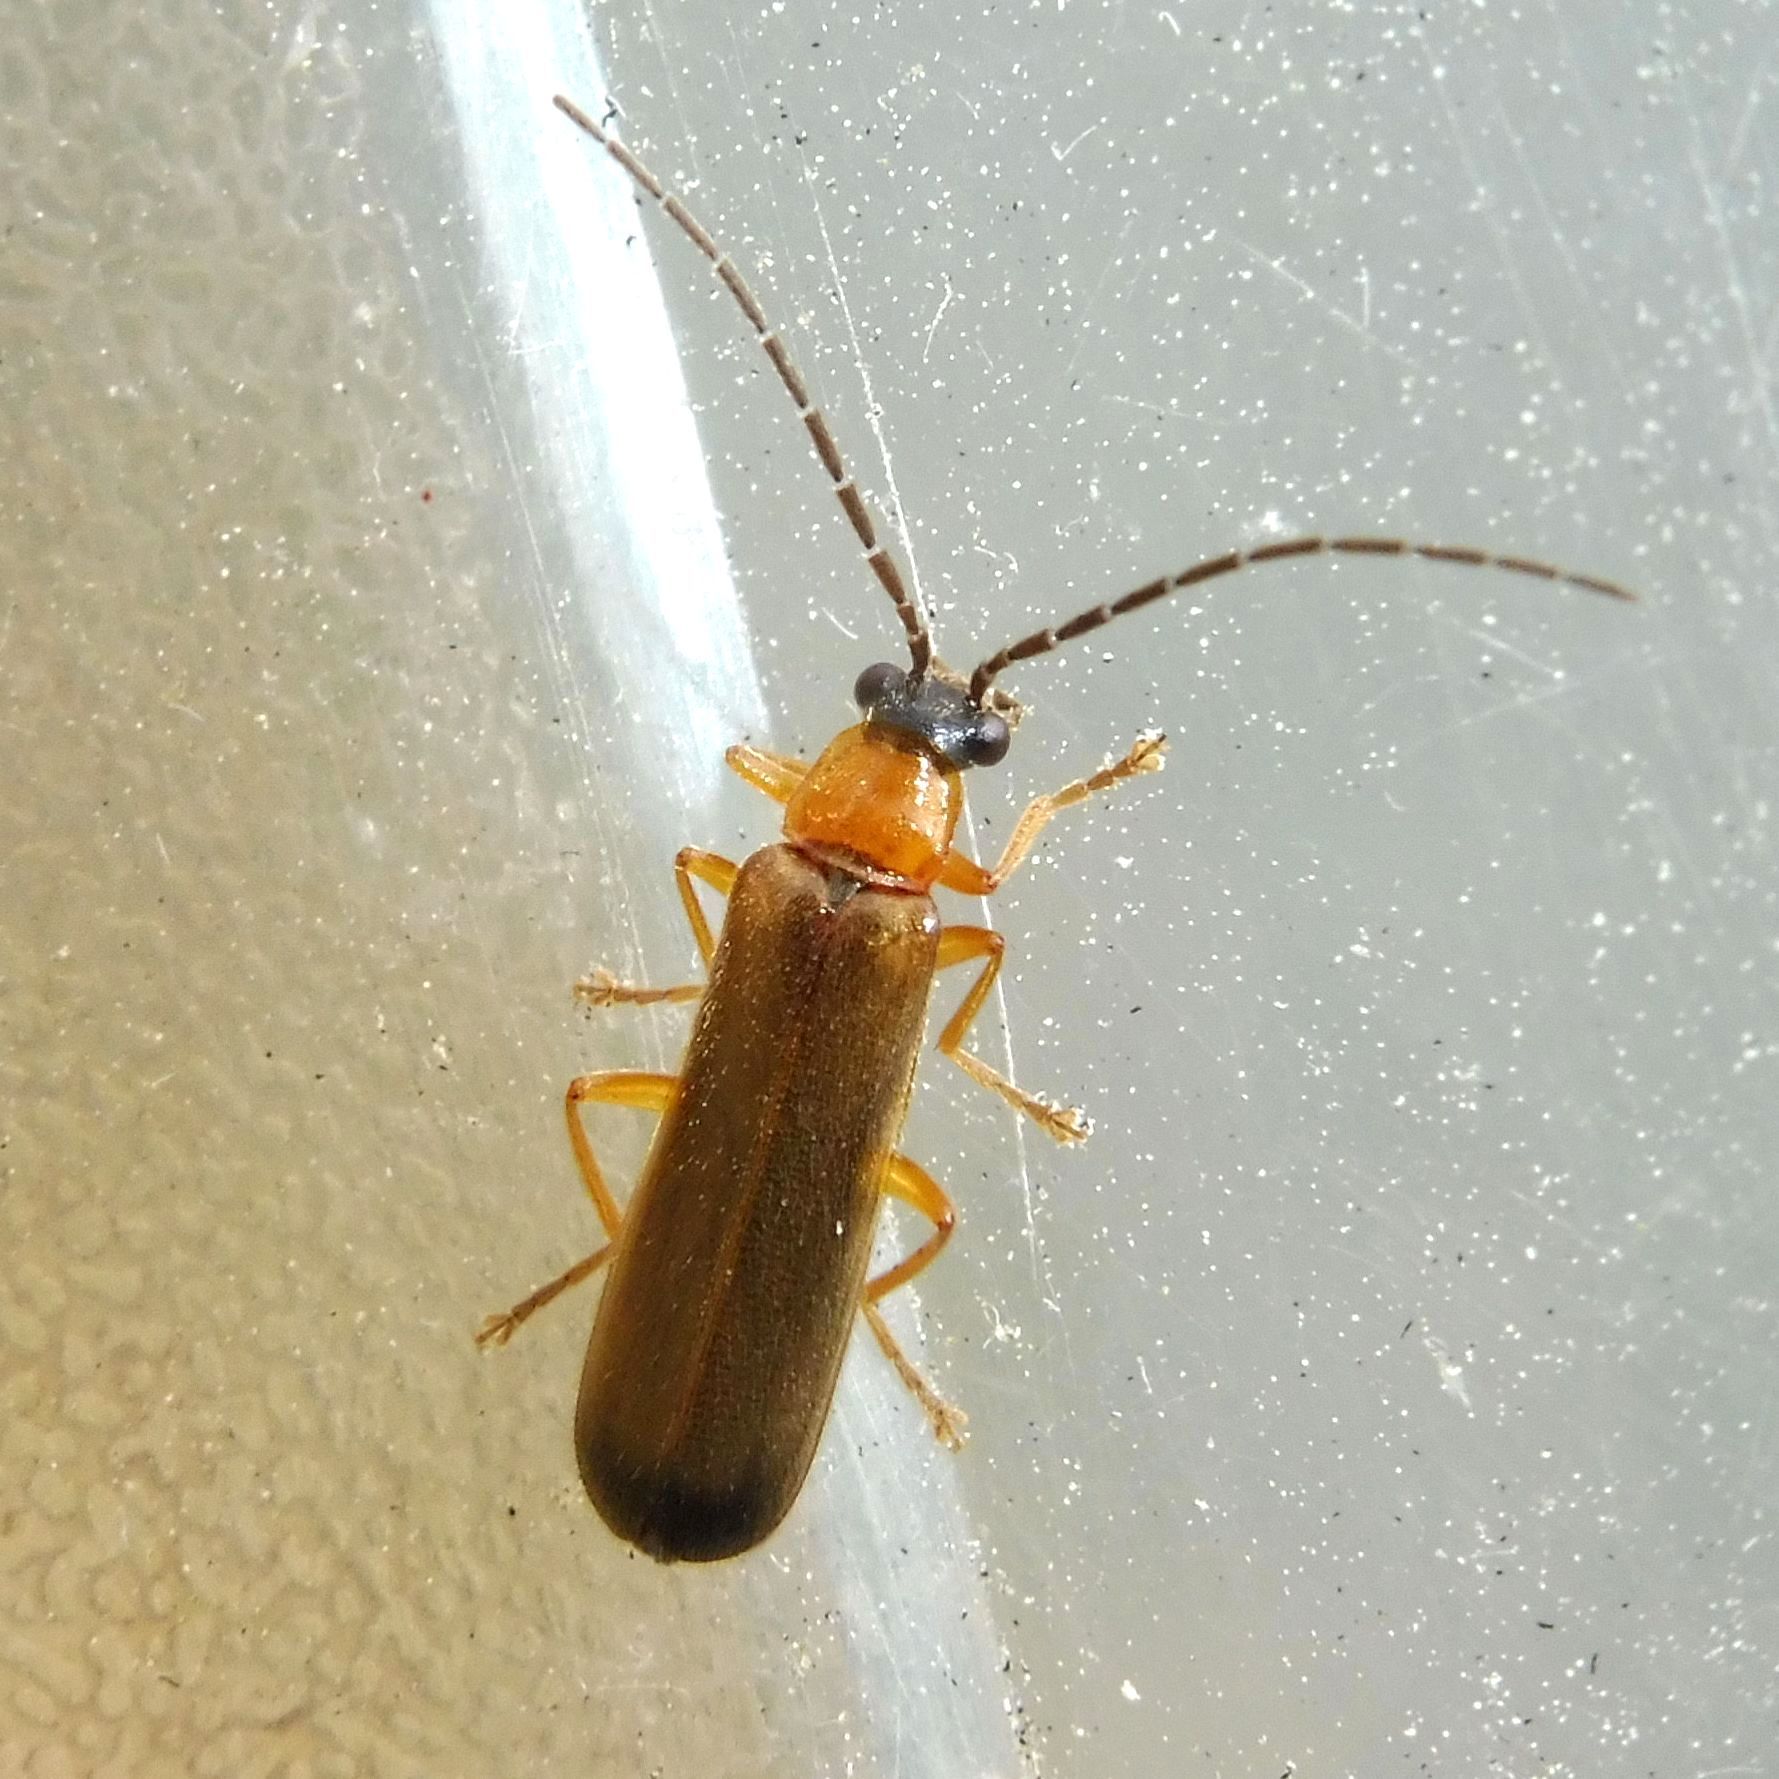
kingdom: Animalia
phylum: Arthropoda
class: Insecta
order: Coleoptera
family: Cantharidae
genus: Rhagonycha
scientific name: Rhagonycha lutea
